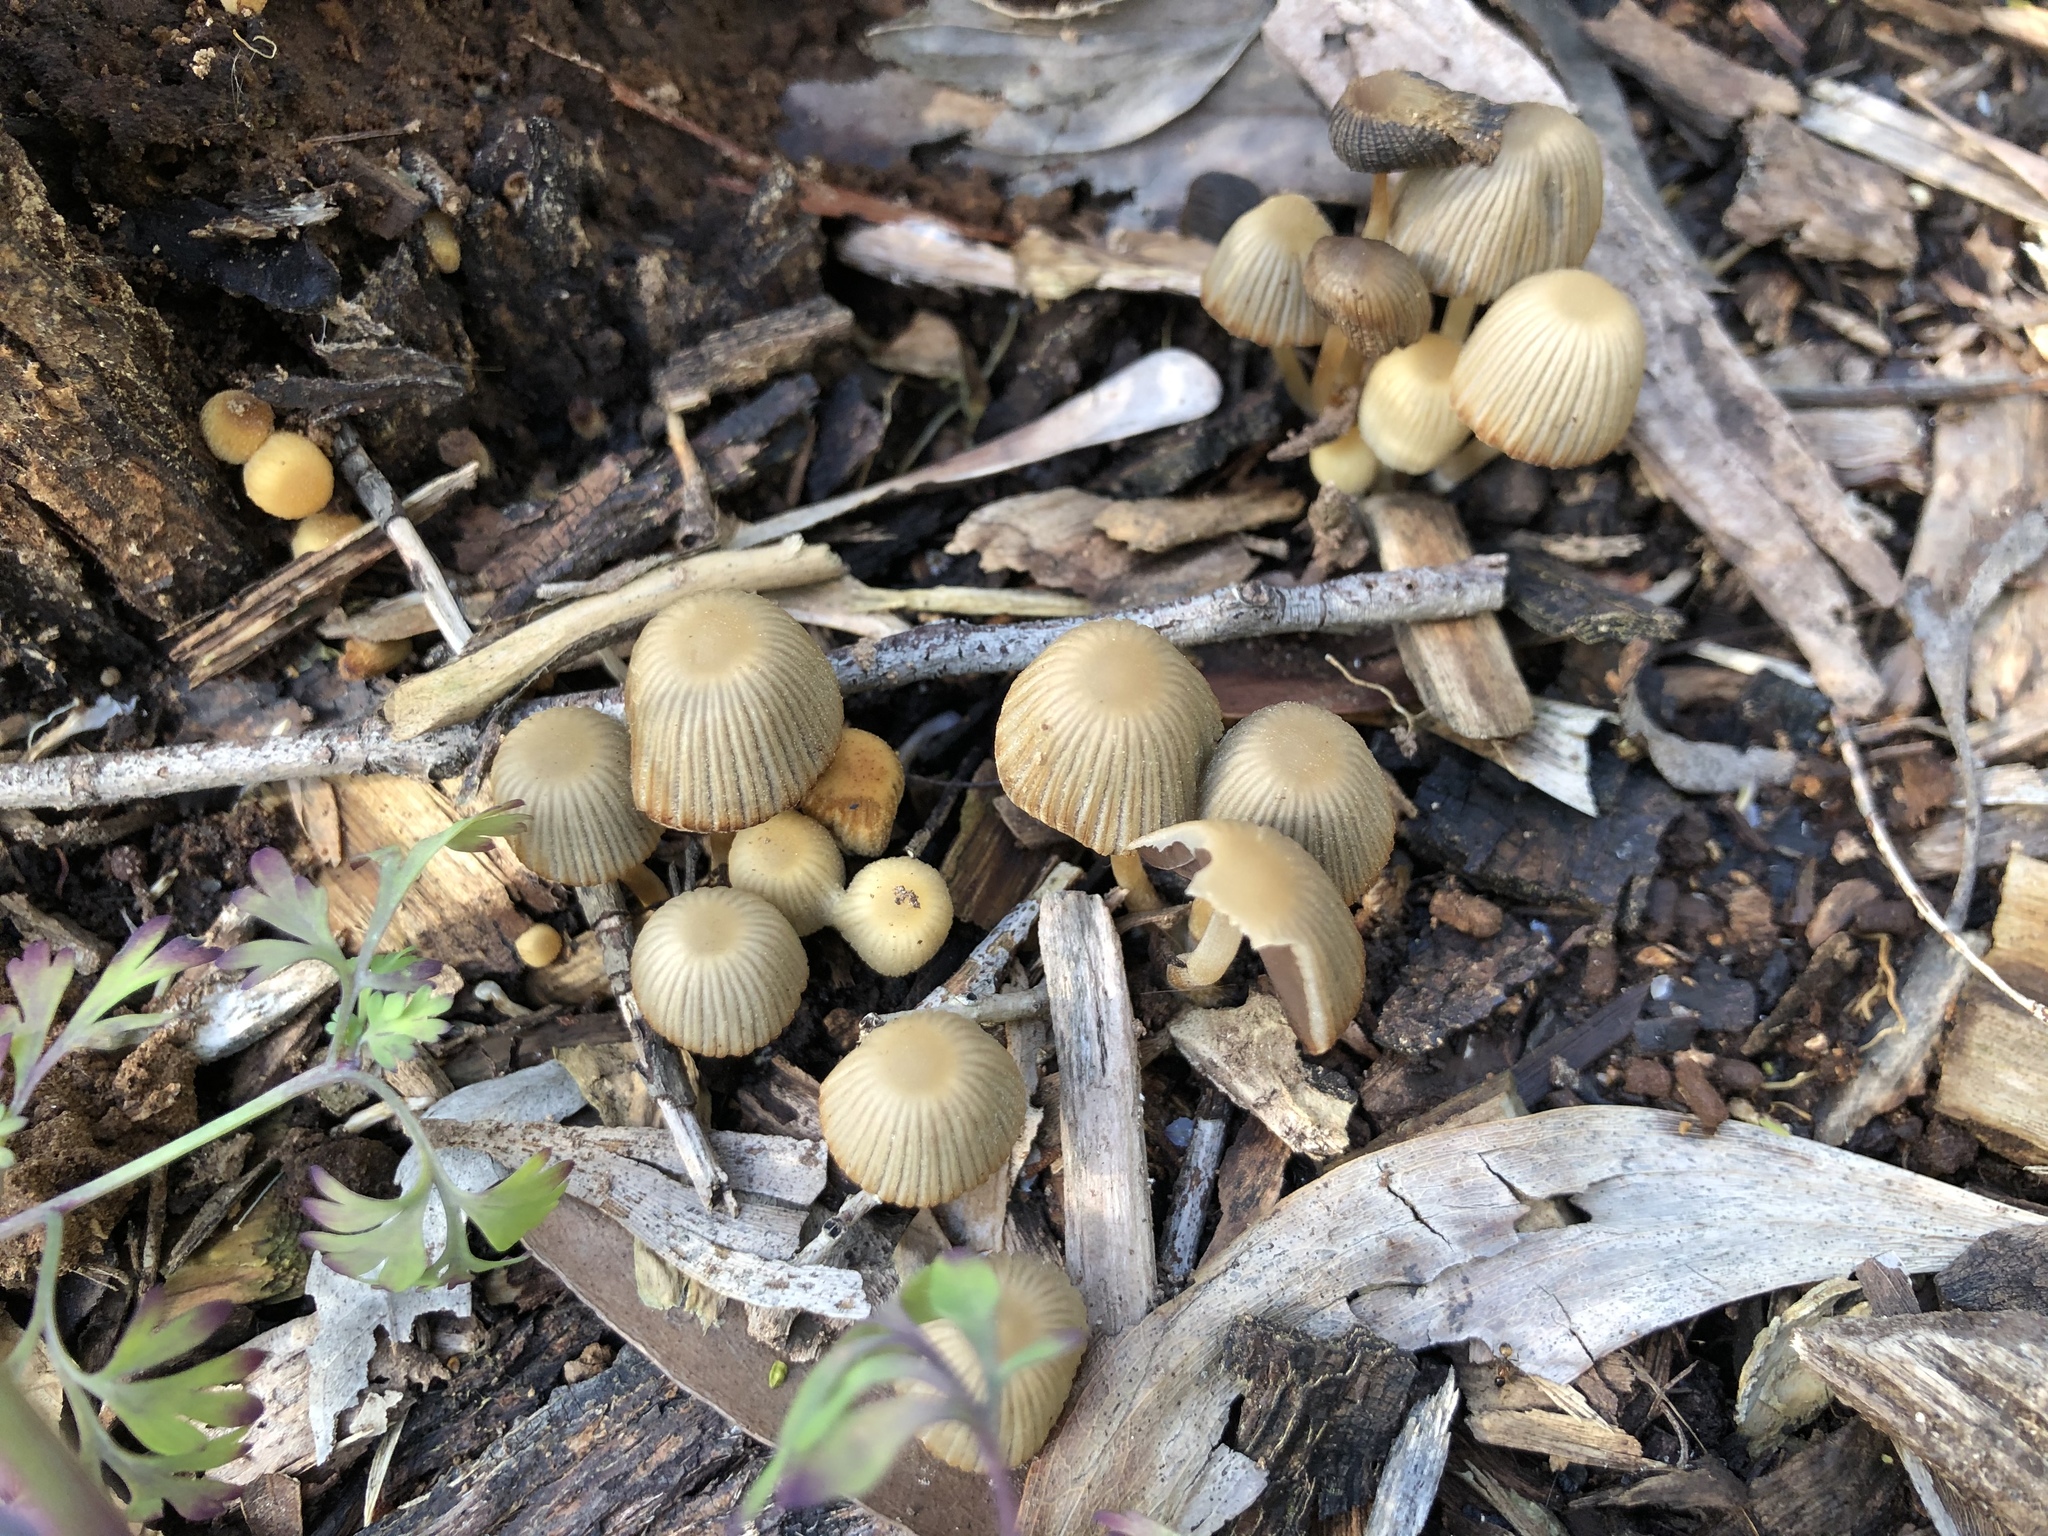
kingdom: Fungi
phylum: Basidiomycota
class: Agaricomycetes
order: Agaricales
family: Psathyrellaceae
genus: Coprinellus
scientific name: Coprinellus disseminatus
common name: Fairies' bonnets
